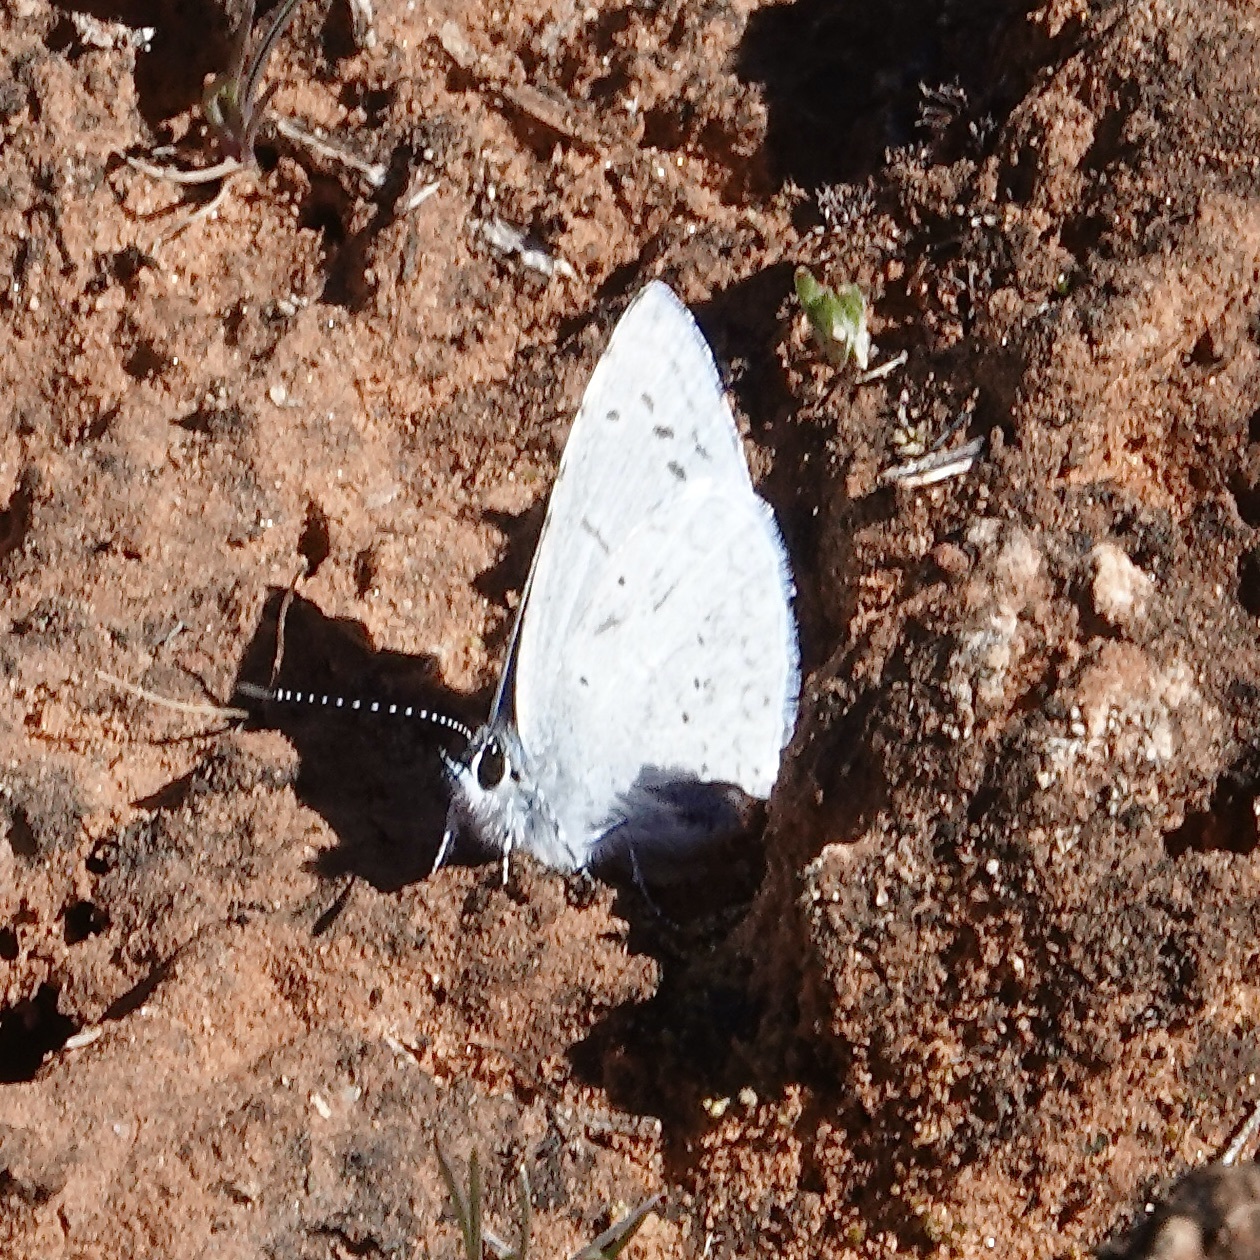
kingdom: Animalia
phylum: Arthropoda
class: Insecta
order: Lepidoptera
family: Lycaenidae
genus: Celastrina
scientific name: Celastrina ladon
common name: Spring azure
